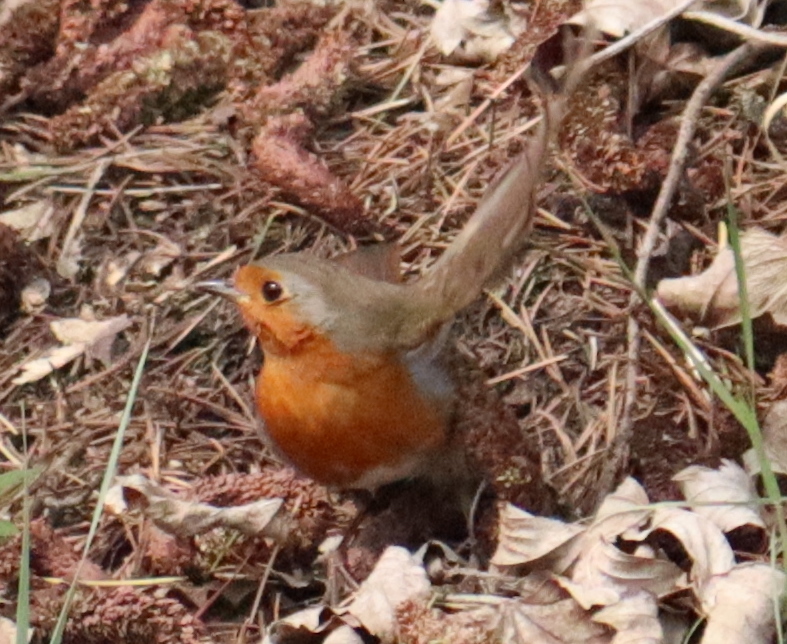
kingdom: Animalia
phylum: Chordata
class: Aves
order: Passeriformes
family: Muscicapidae
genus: Erithacus
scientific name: Erithacus rubecula
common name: European robin
